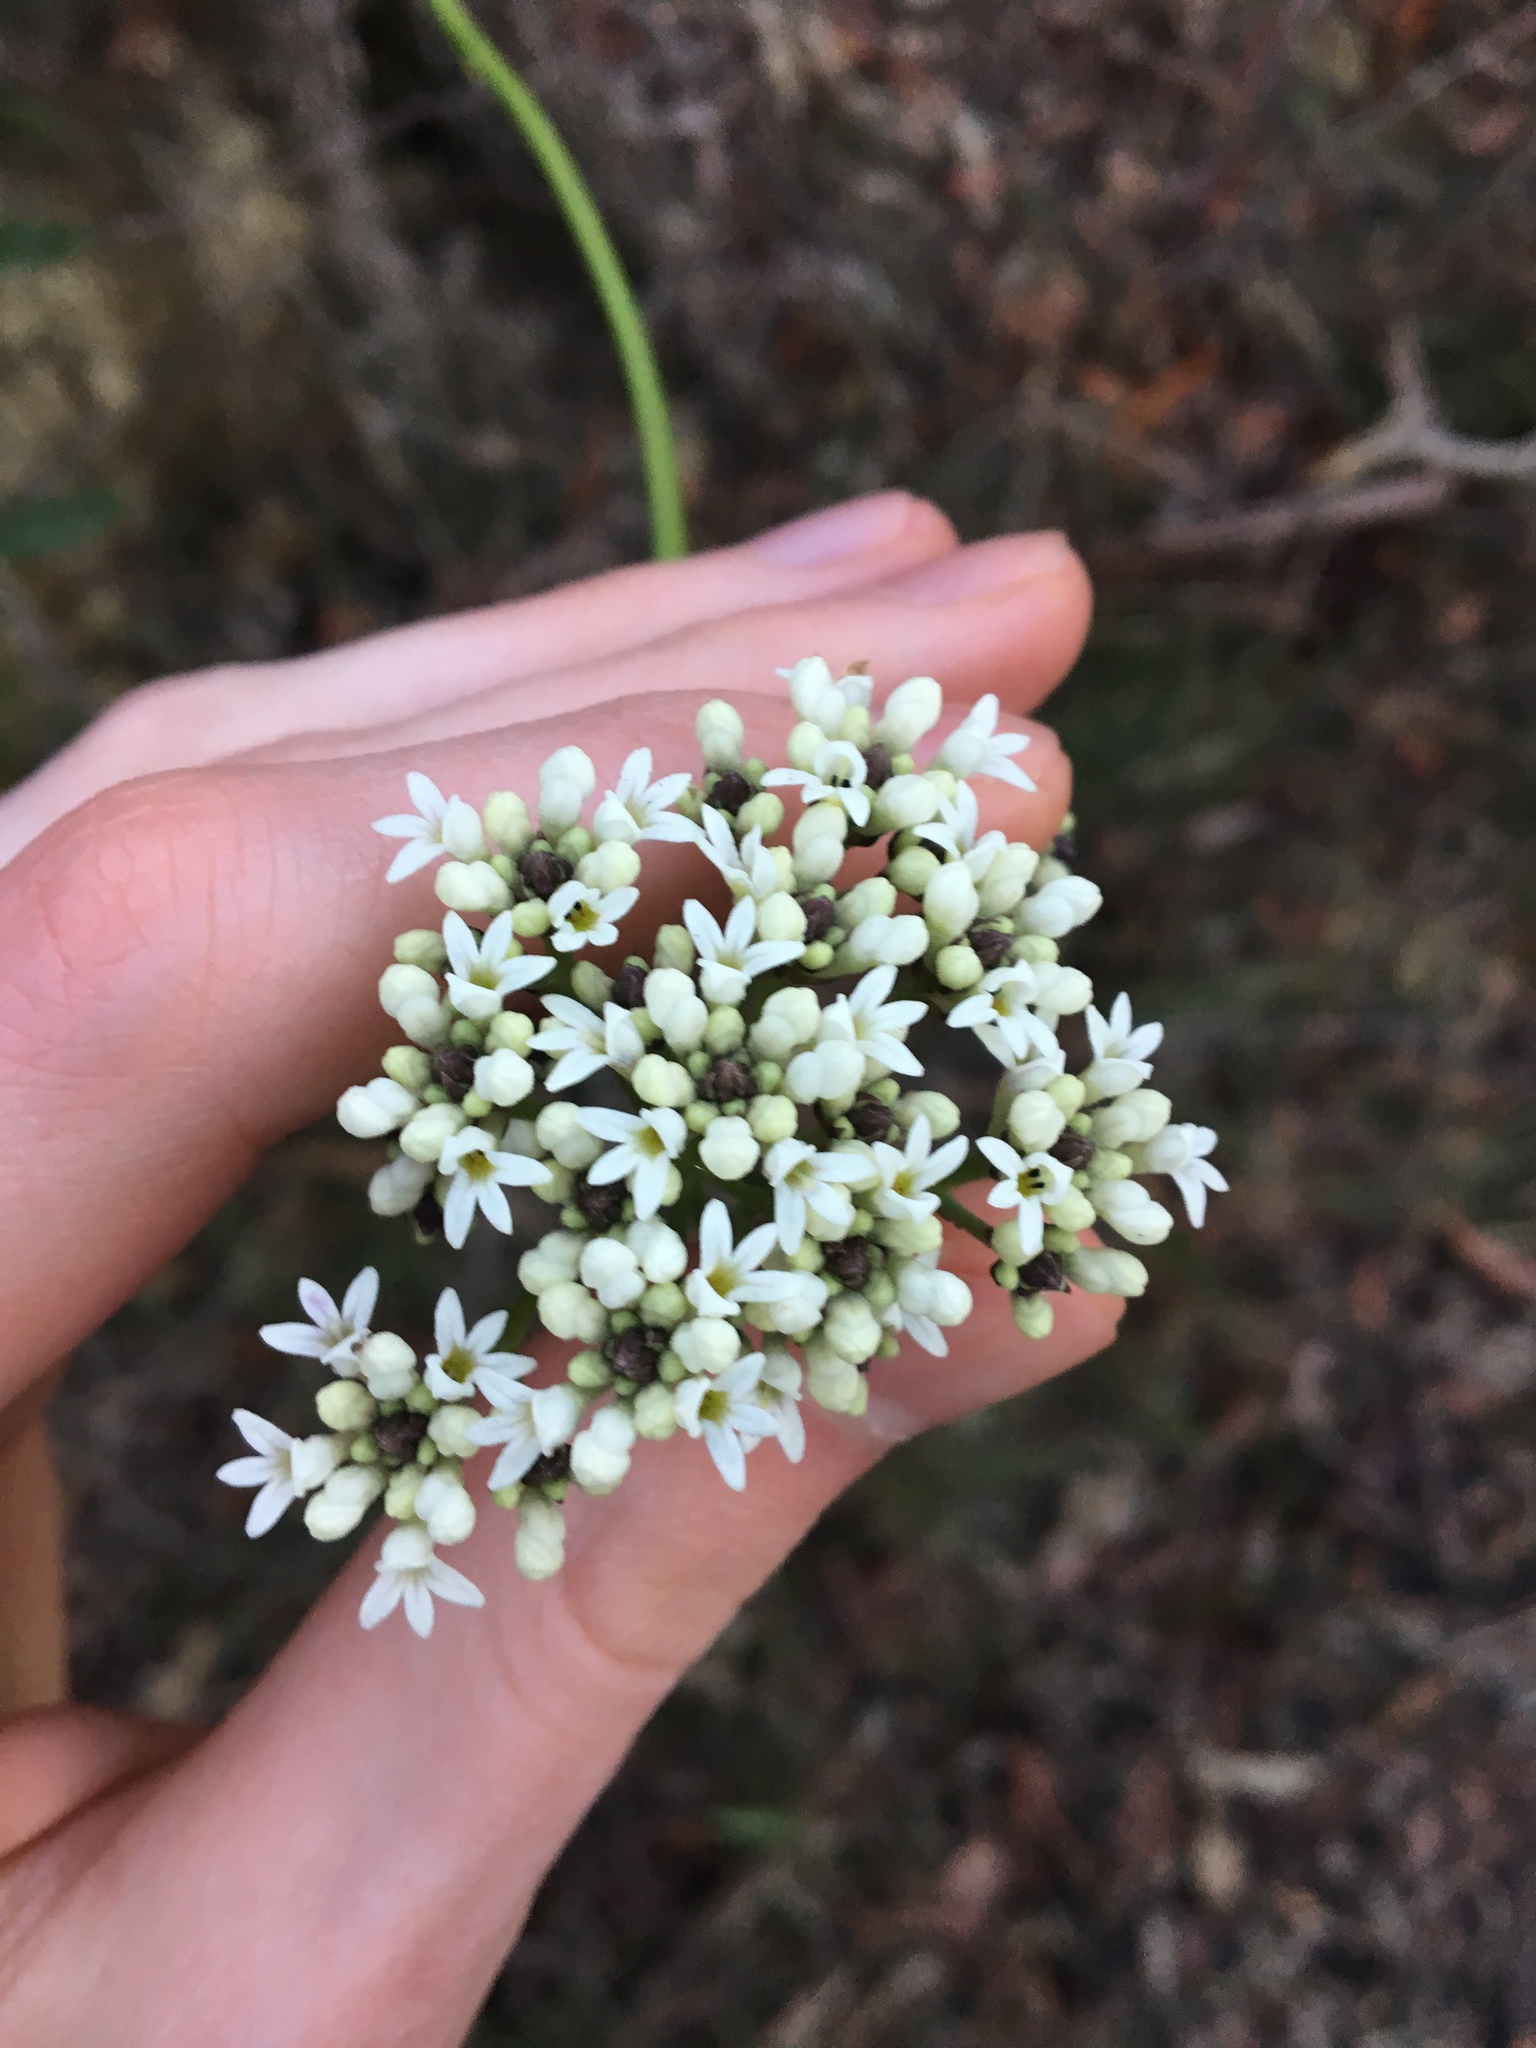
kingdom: Plantae
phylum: Tracheophyta
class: Magnoliopsida
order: Proteales
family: Proteaceae
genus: Conospermum
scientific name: Conospermum longifolium
